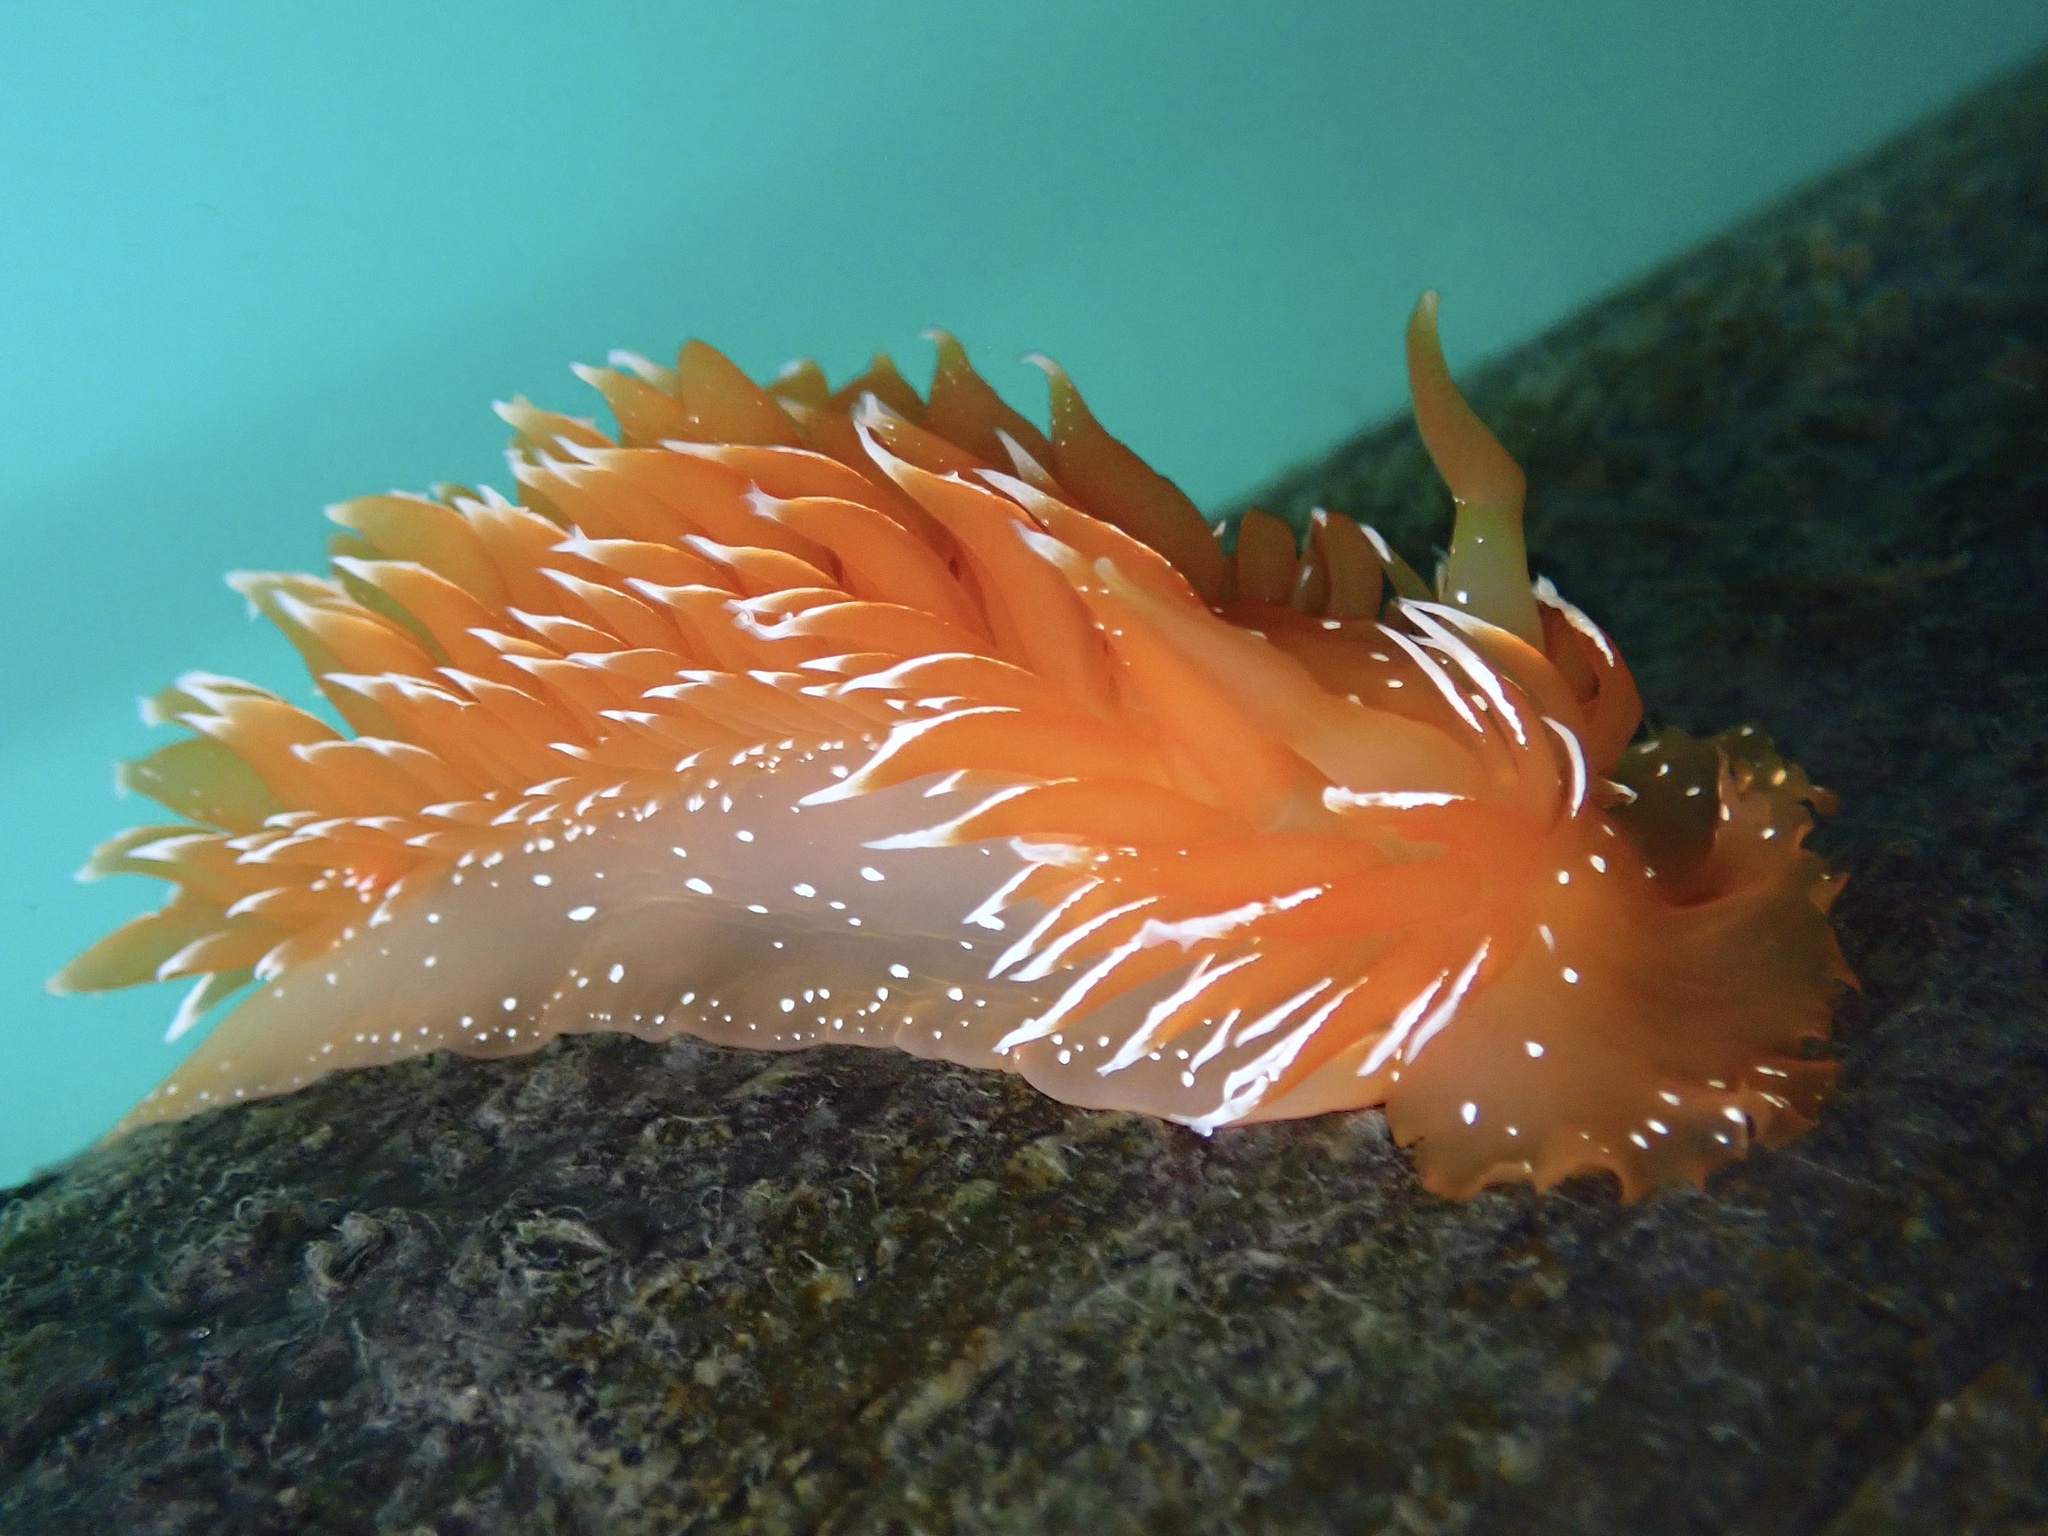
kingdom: Animalia
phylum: Mollusca
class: Gastropoda
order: Nudibranchia
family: Dironidae
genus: Dirona
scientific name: Dirona pellucida
